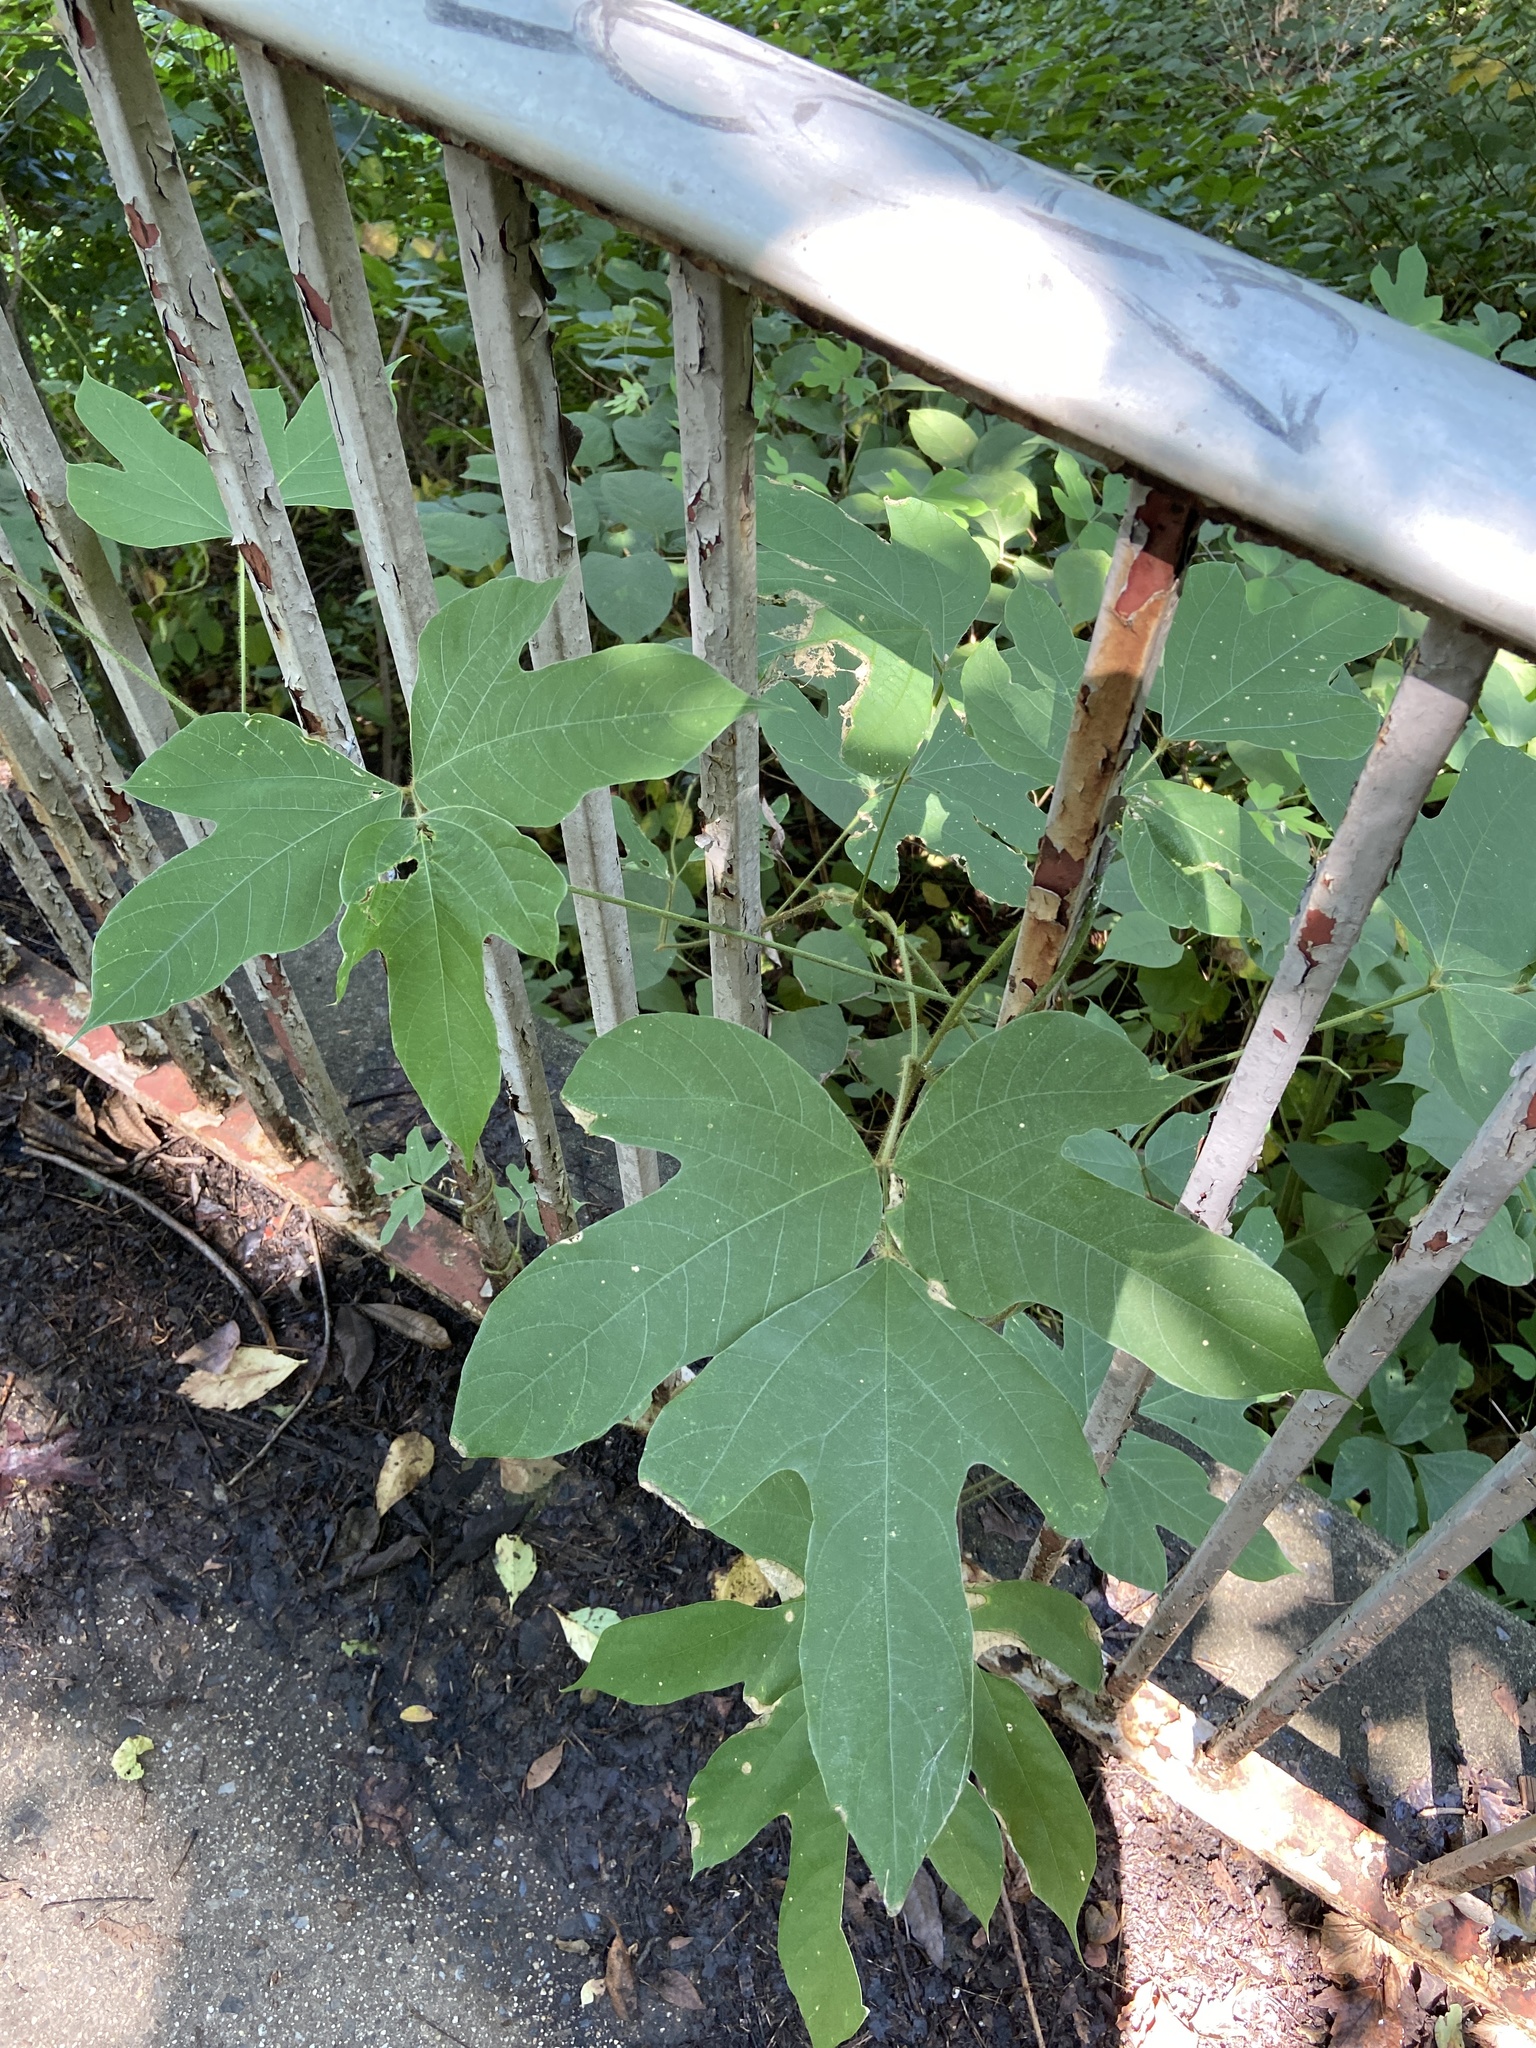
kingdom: Plantae
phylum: Tracheophyta
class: Magnoliopsida
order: Fabales
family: Fabaceae
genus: Pueraria
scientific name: Pueraria montana
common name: Kudzu
